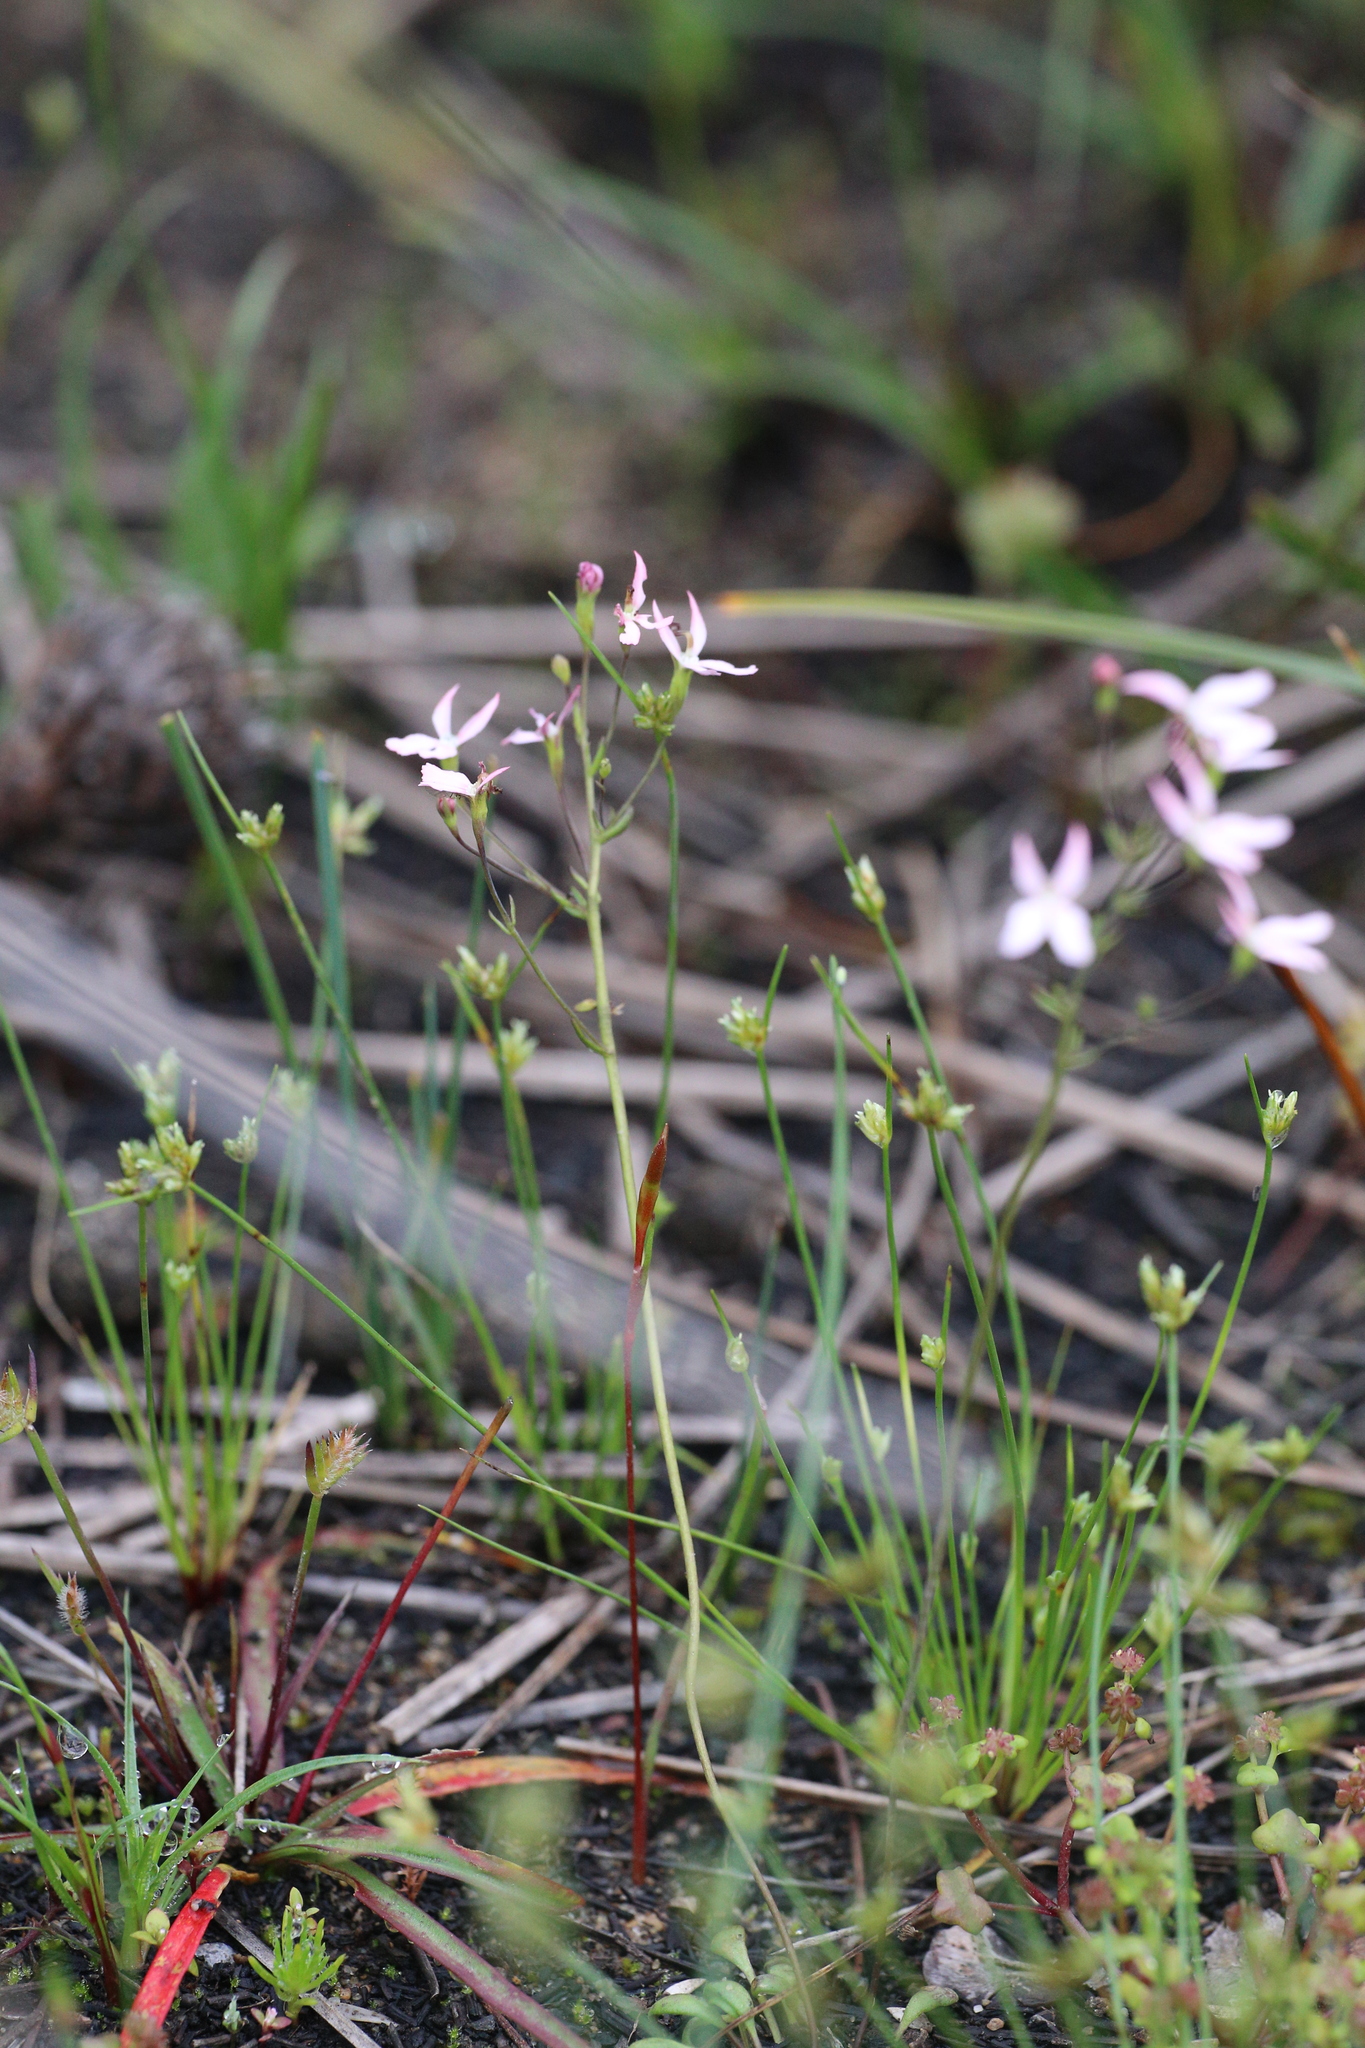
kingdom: Plantae
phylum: Tracheophyta
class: Magnoliopsida
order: Asterales
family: Stylidiaceae
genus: Stylidium
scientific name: Stylidium petiolare
